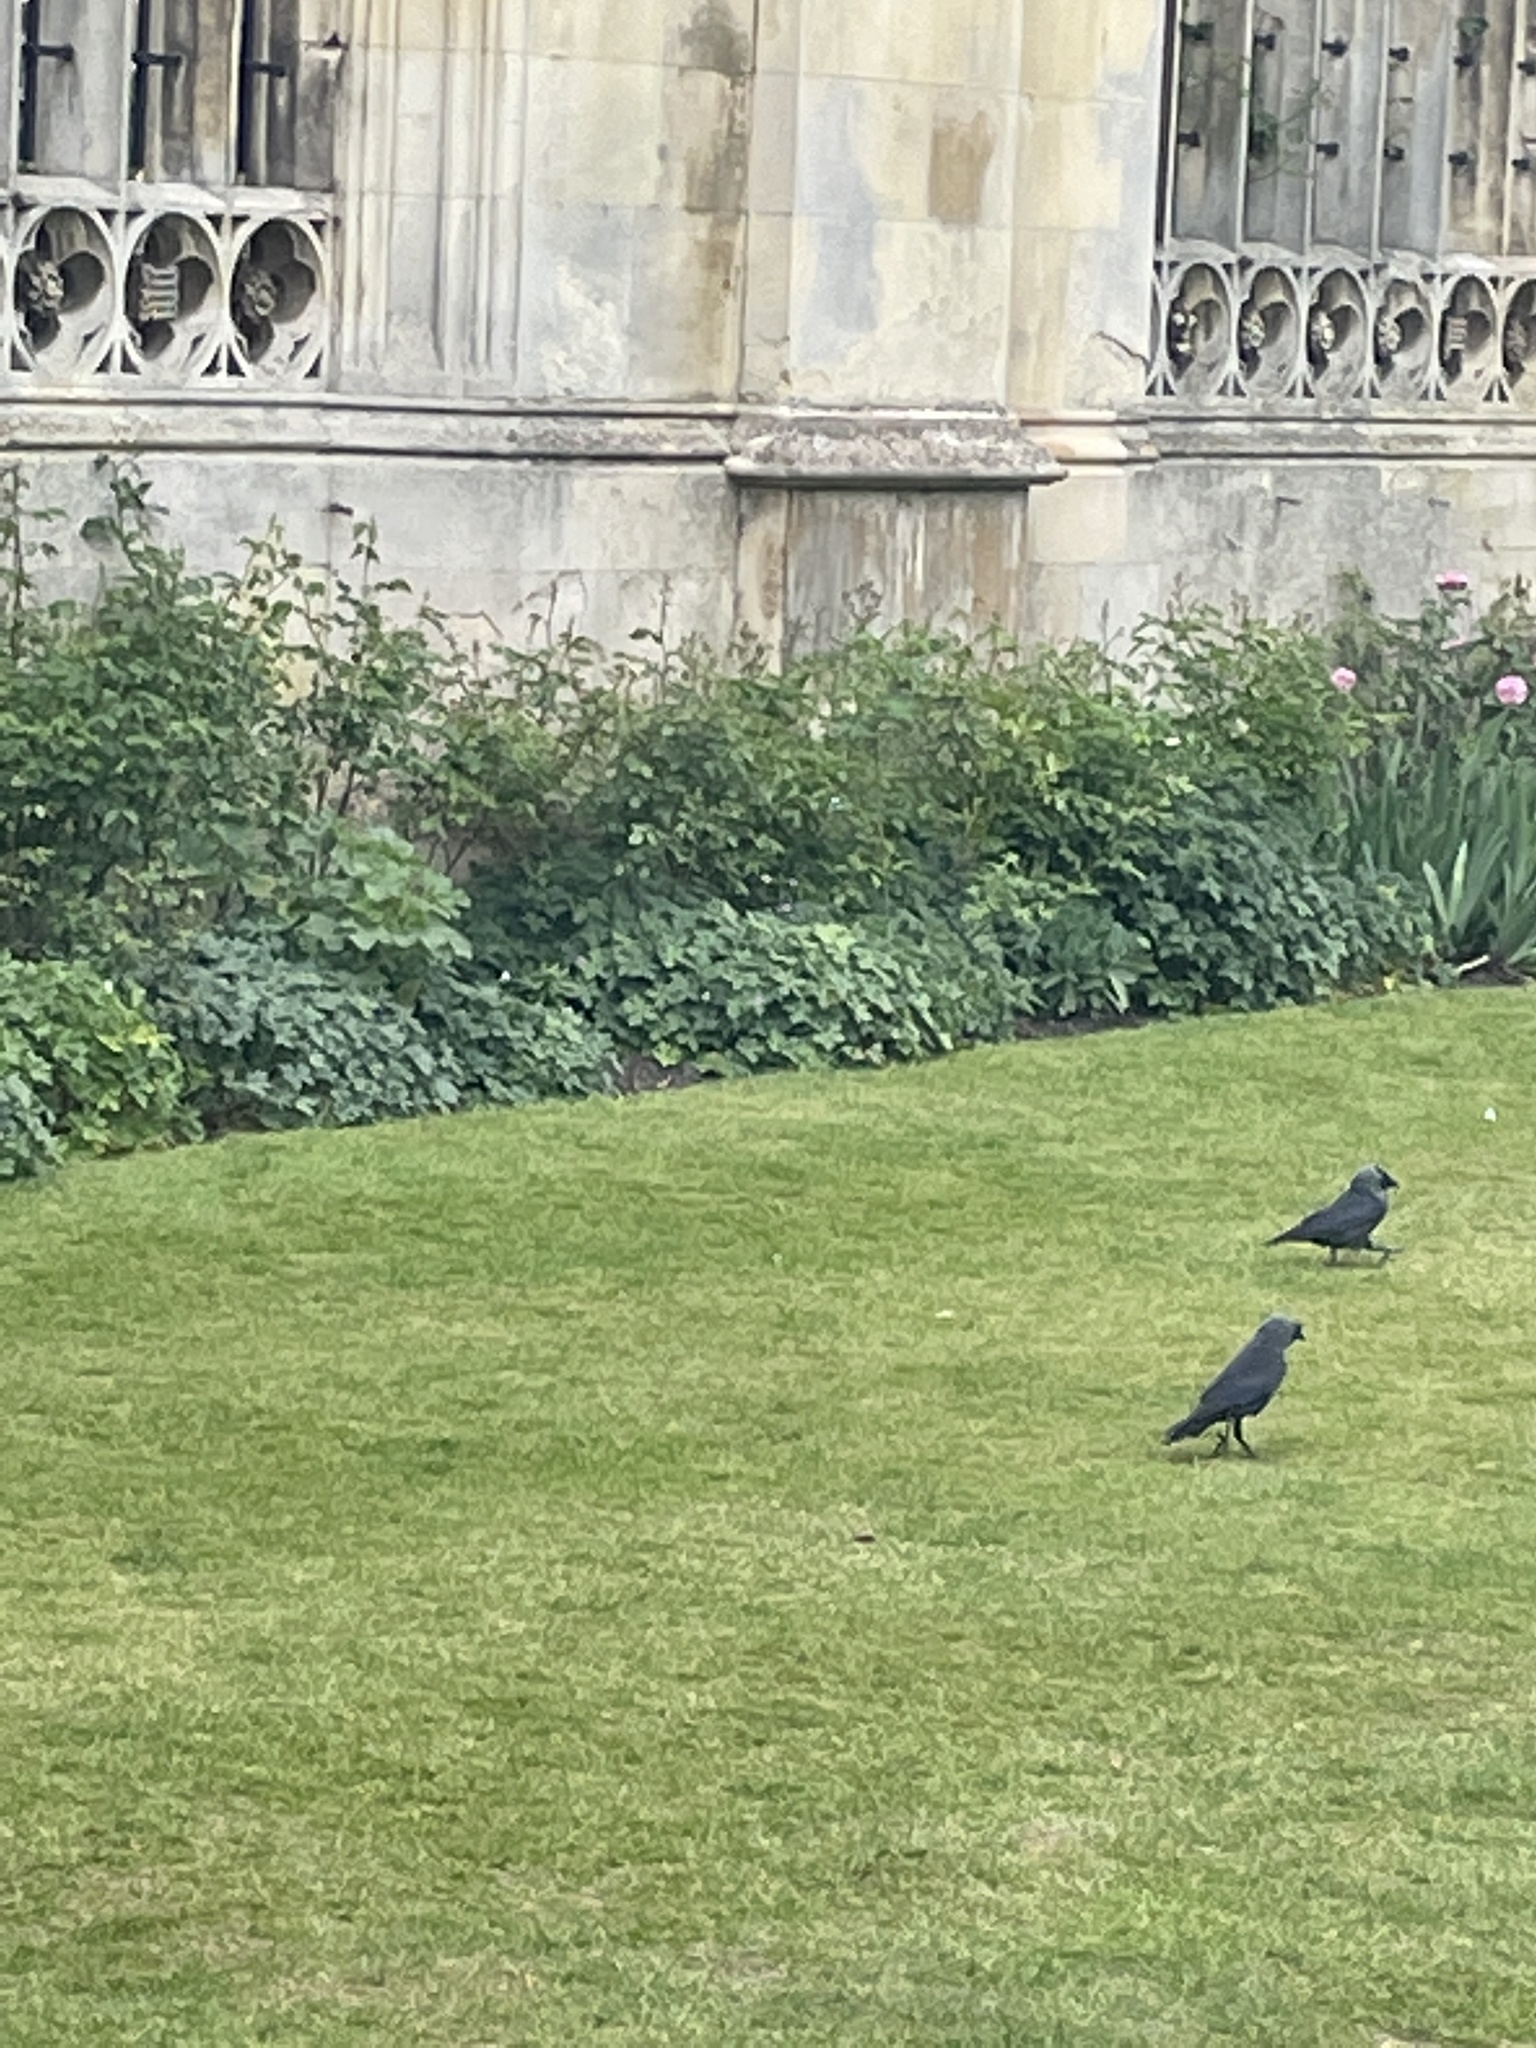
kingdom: Animalia
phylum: Chordata
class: Aves
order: Passeriformes
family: Corvidae
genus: Coloeus
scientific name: Coloeus monedula
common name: Western jackdaw
